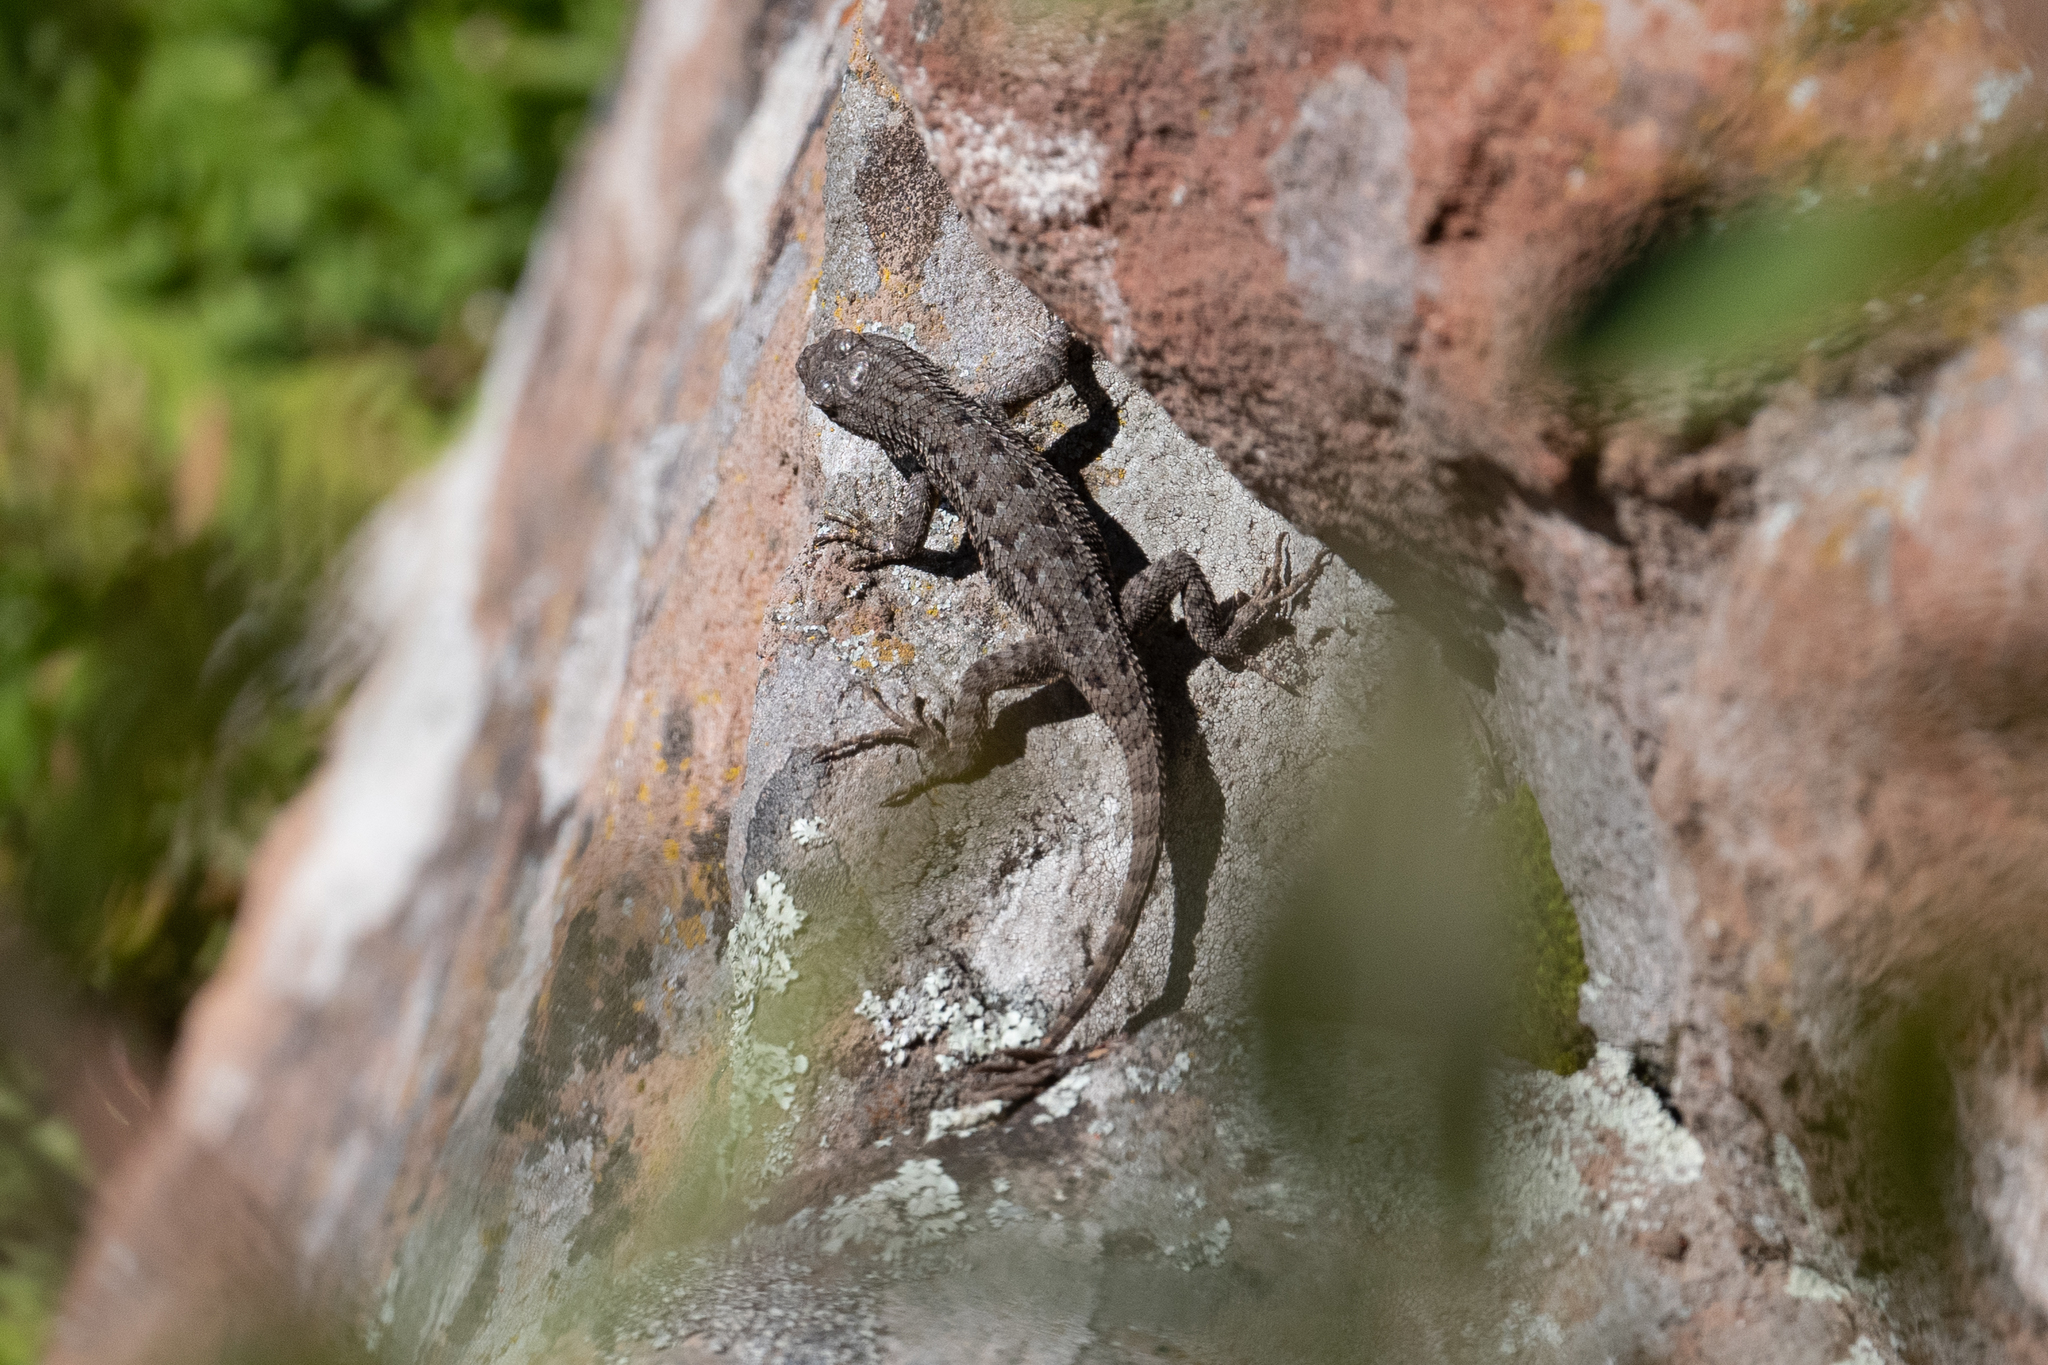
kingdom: Animalia
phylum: Chordata
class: Squamata
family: Phrynosomatidae
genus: Sceloporus
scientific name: Sceloporus occidentalis
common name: Western fence lizard
